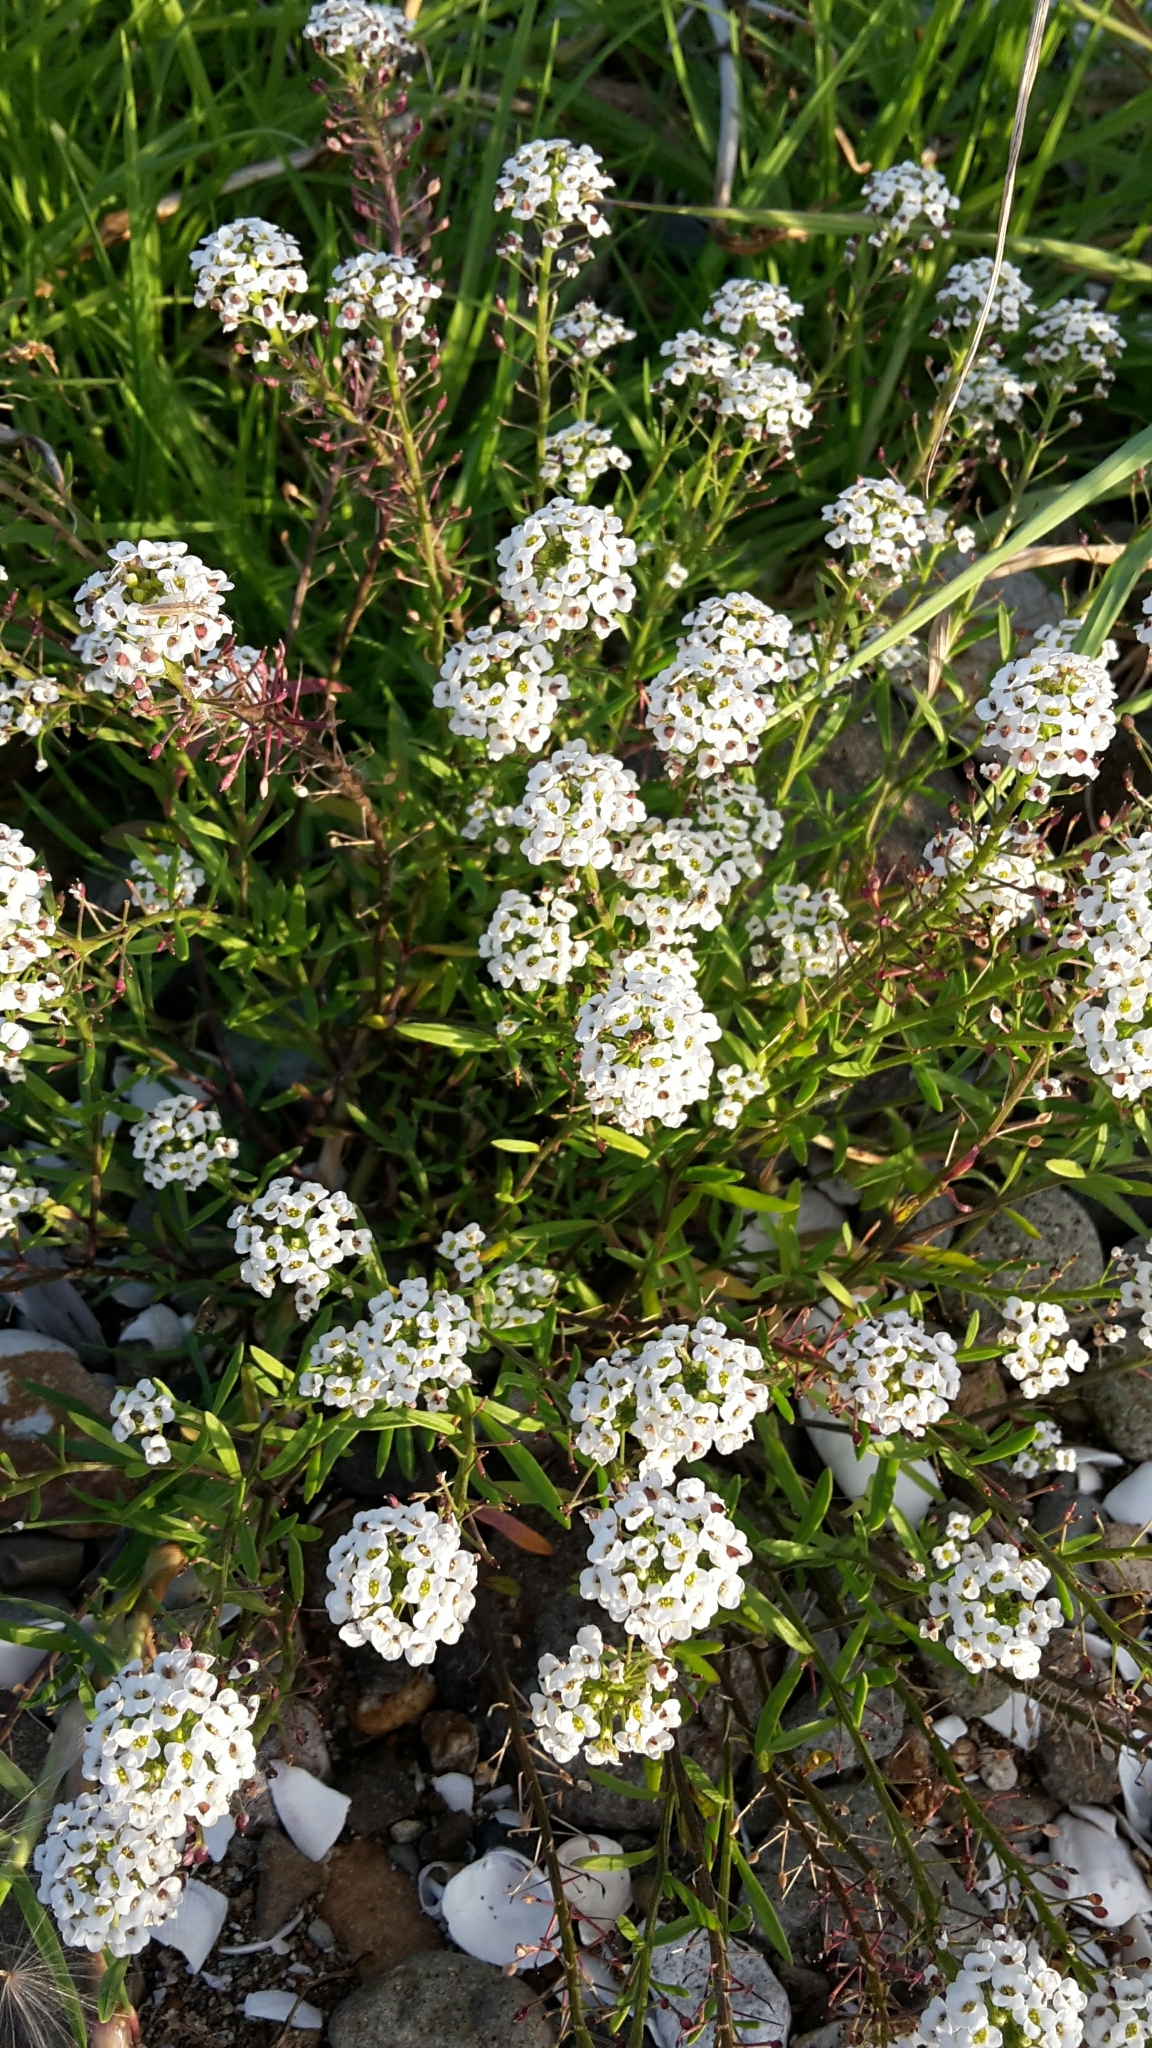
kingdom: Plantae
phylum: Tracheophyta
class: Magnoliopsida
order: Brassicales
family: Brassicaceae
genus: Lobularia
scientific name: Lobularia maritima
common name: Sweet alison
